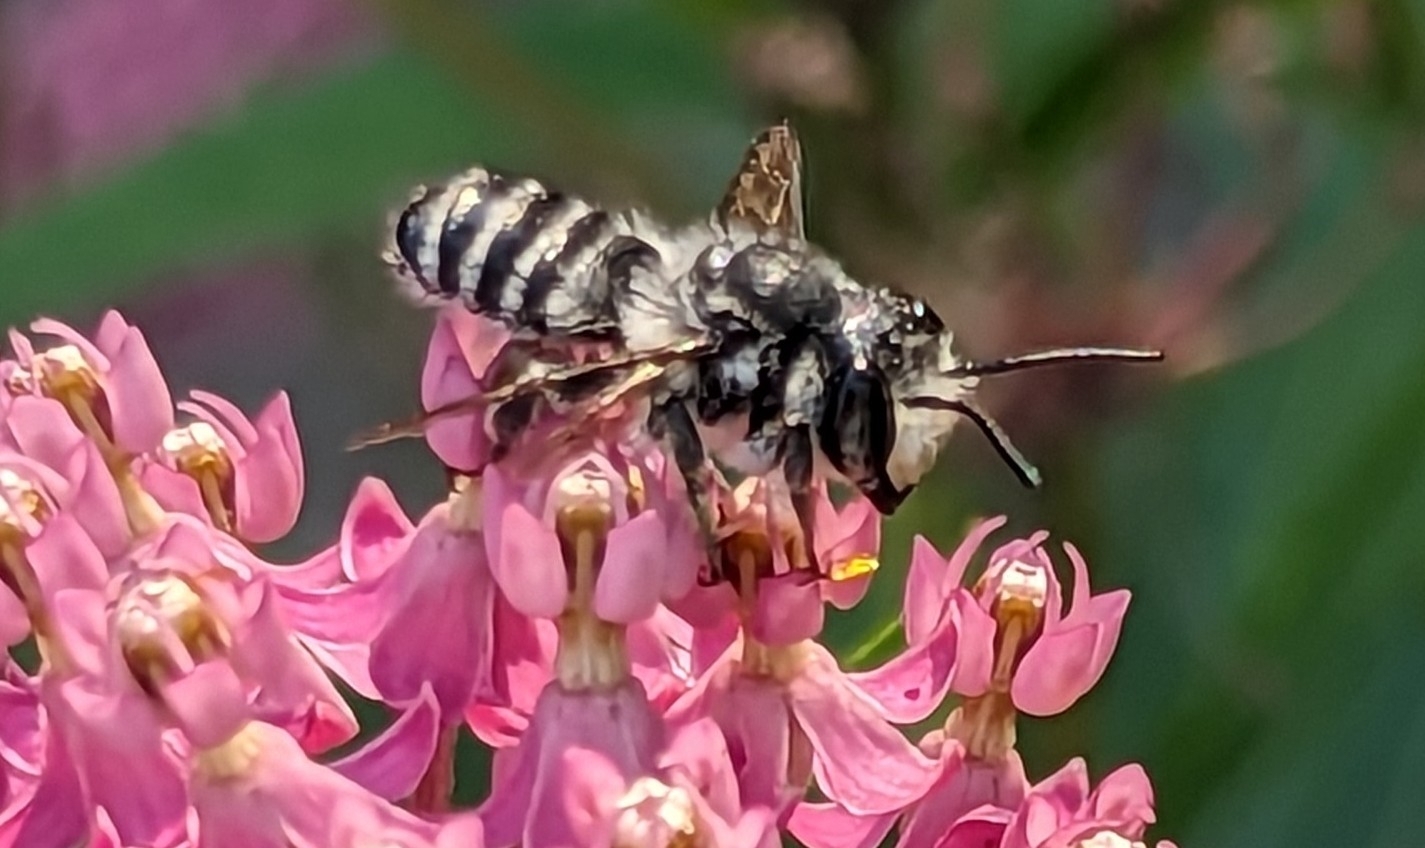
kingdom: Animalia
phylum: Arthropoda
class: Insecta
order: Hymenoptera
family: Megachilidae
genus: Megachile
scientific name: Megachile mendica
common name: Flat-tailed leafcutter
